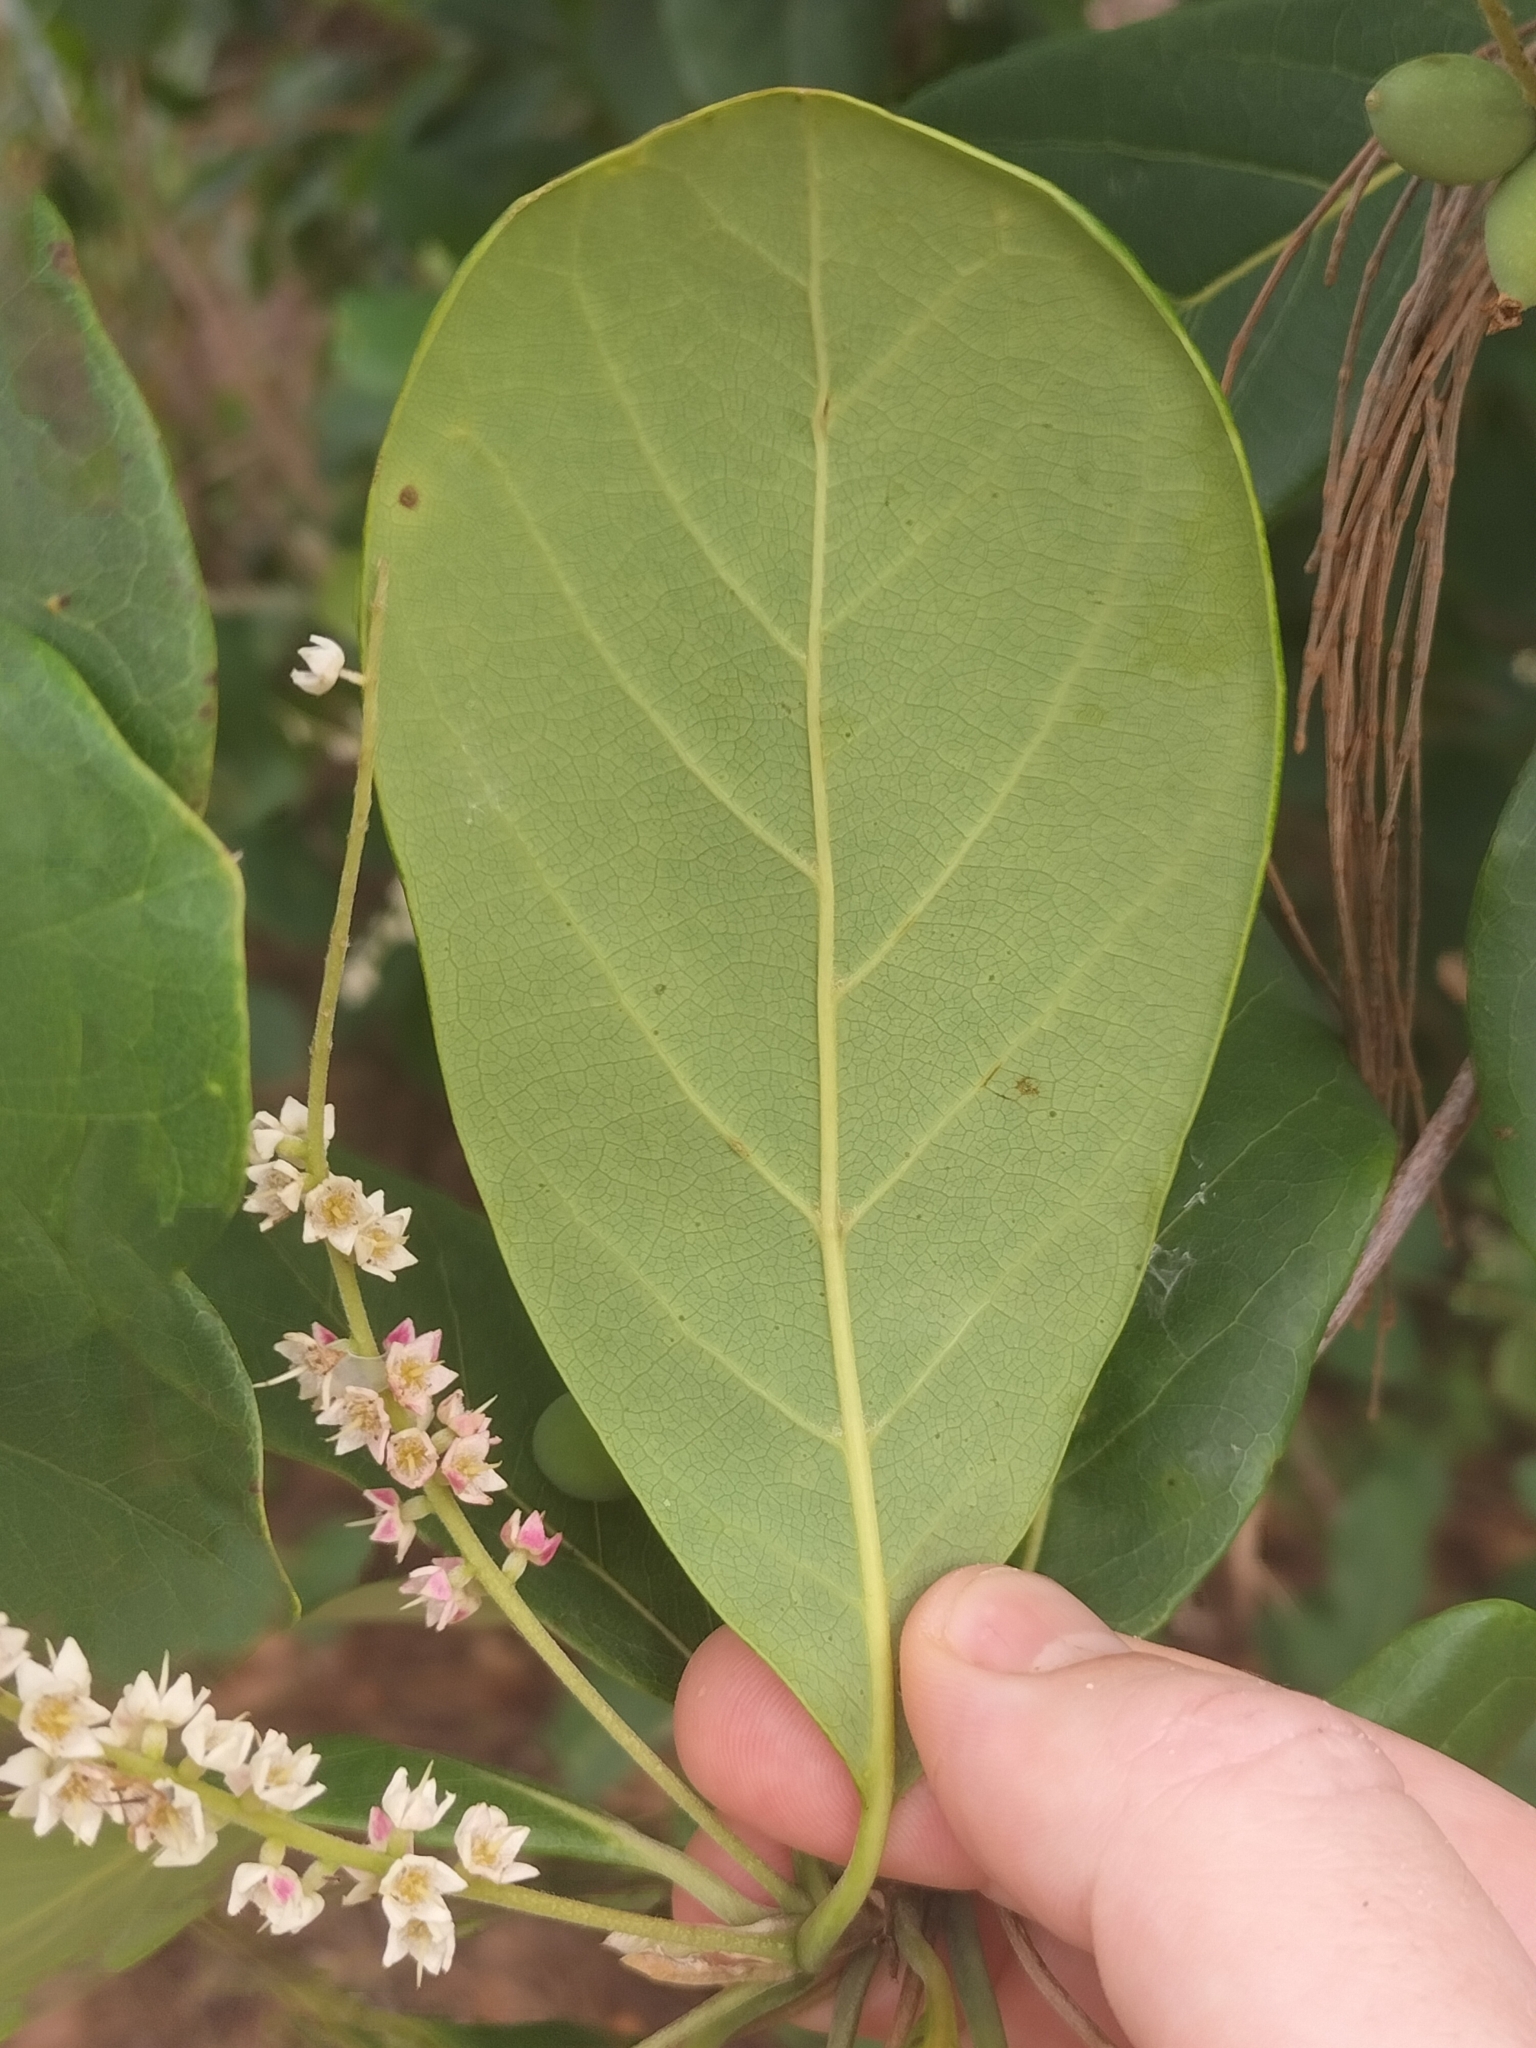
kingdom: Plantae
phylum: Tracheophyta
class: Magnoliopsida
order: Myrtales
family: Combretaceae
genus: Terminalia
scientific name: Terminalia muelleri
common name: Australian almond
